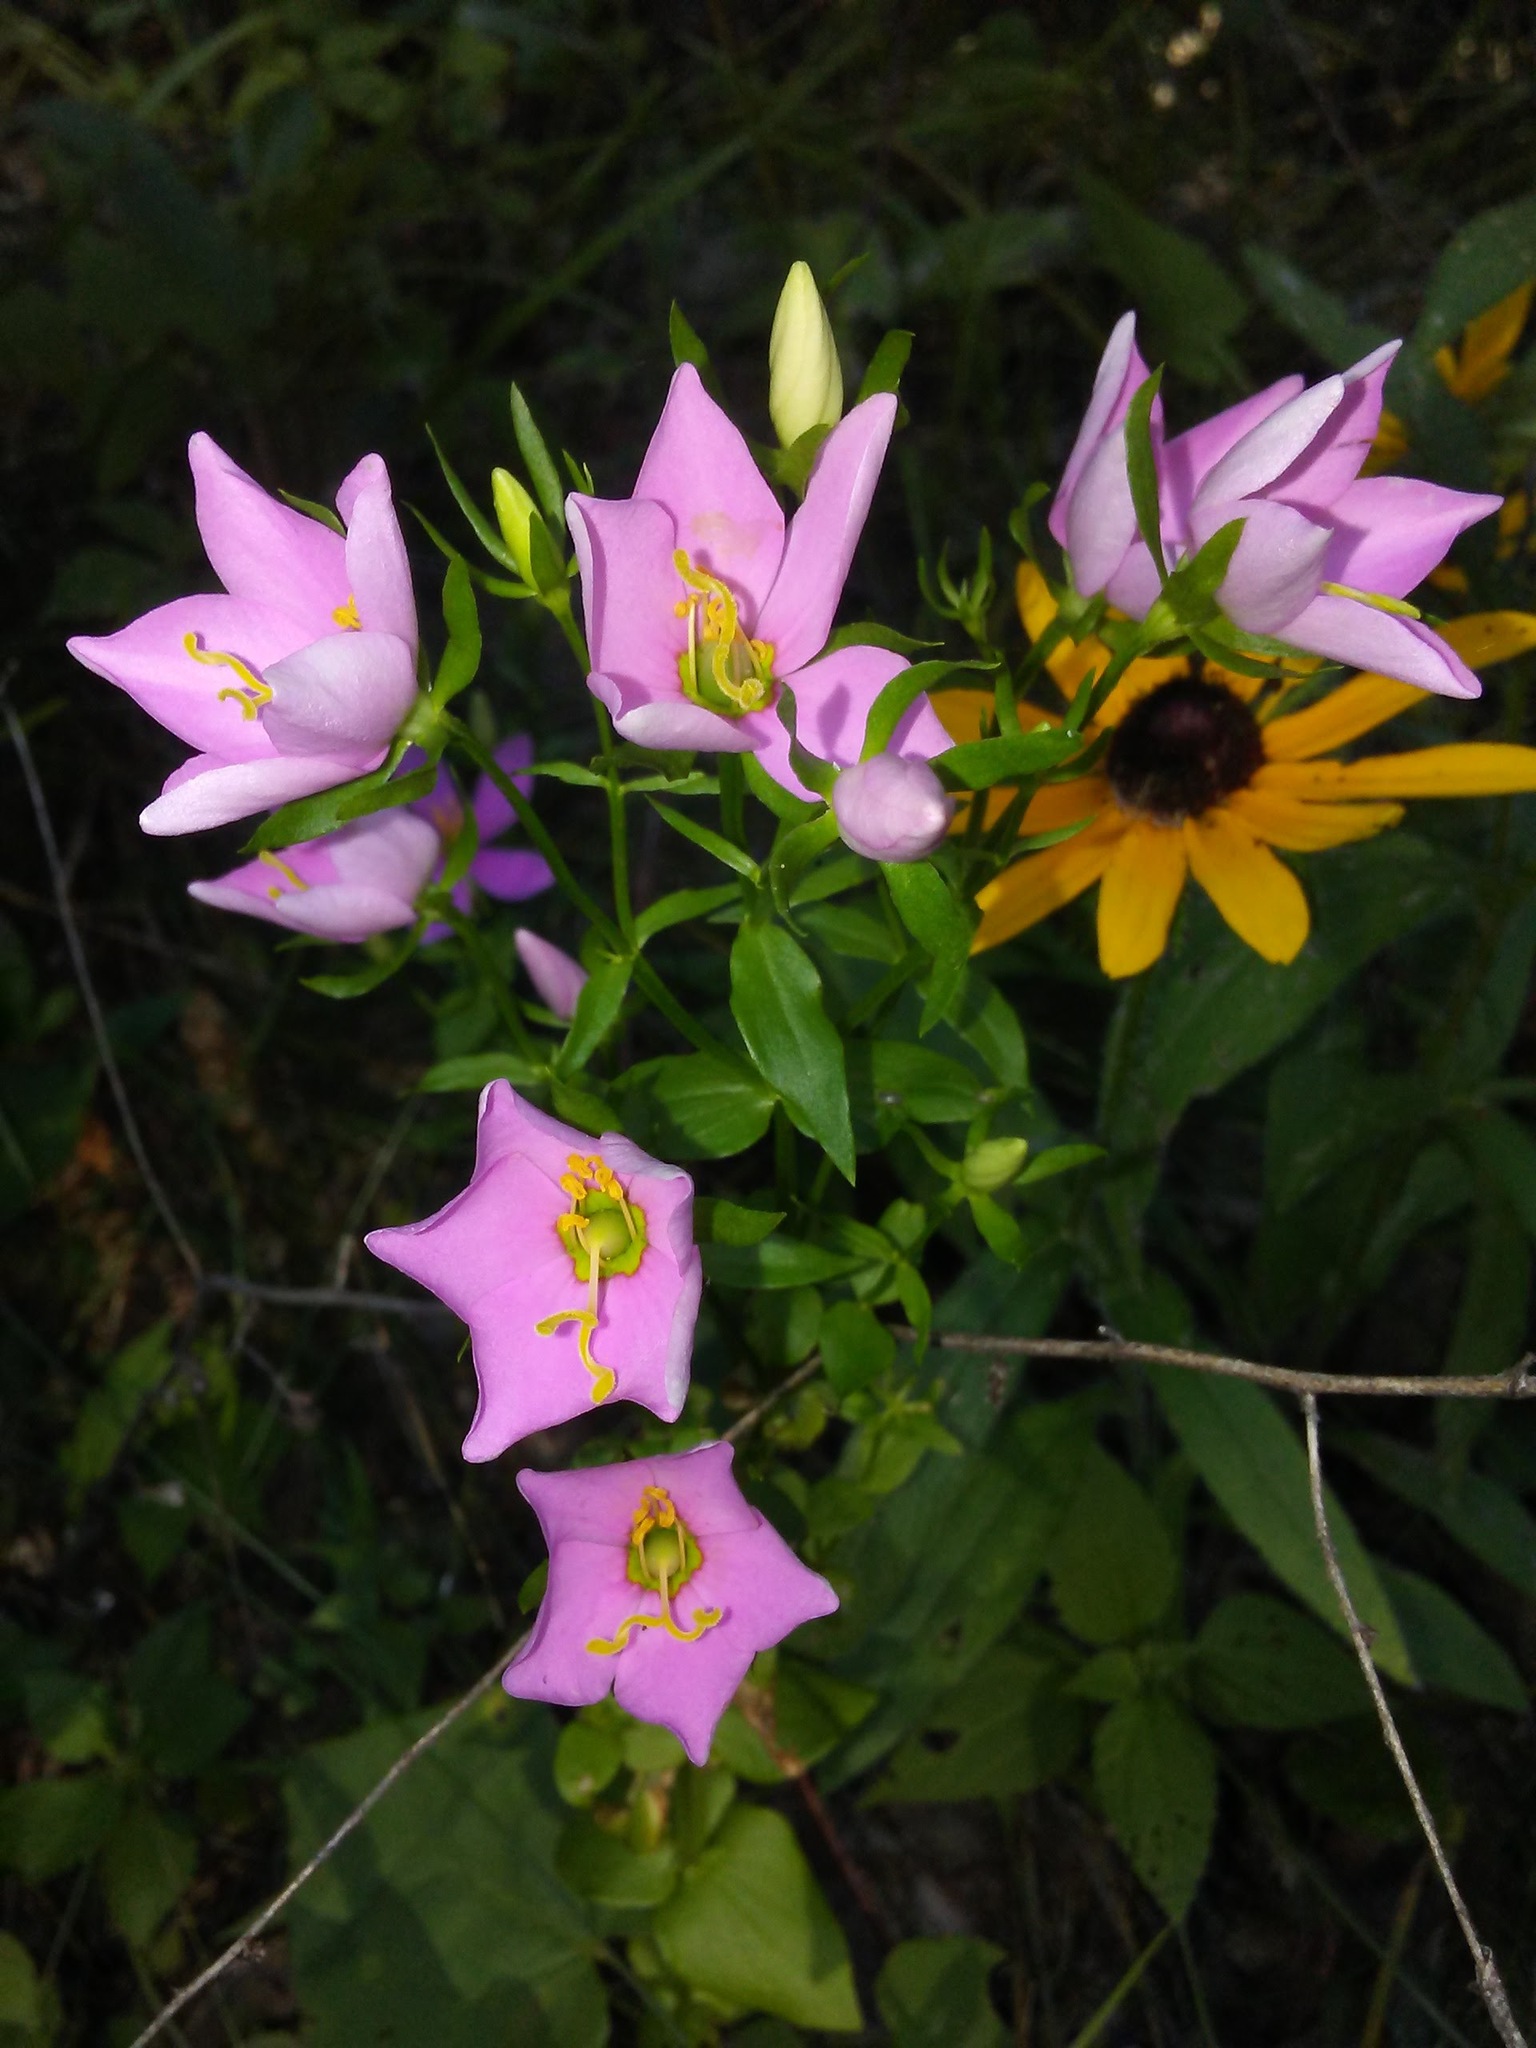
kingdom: Plantae
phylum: Tracheophyta
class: Magnoliopsida
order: Gentianales
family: Gentianaceae
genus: Sabatia
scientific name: Sabatia angularis
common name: Rose-pink
